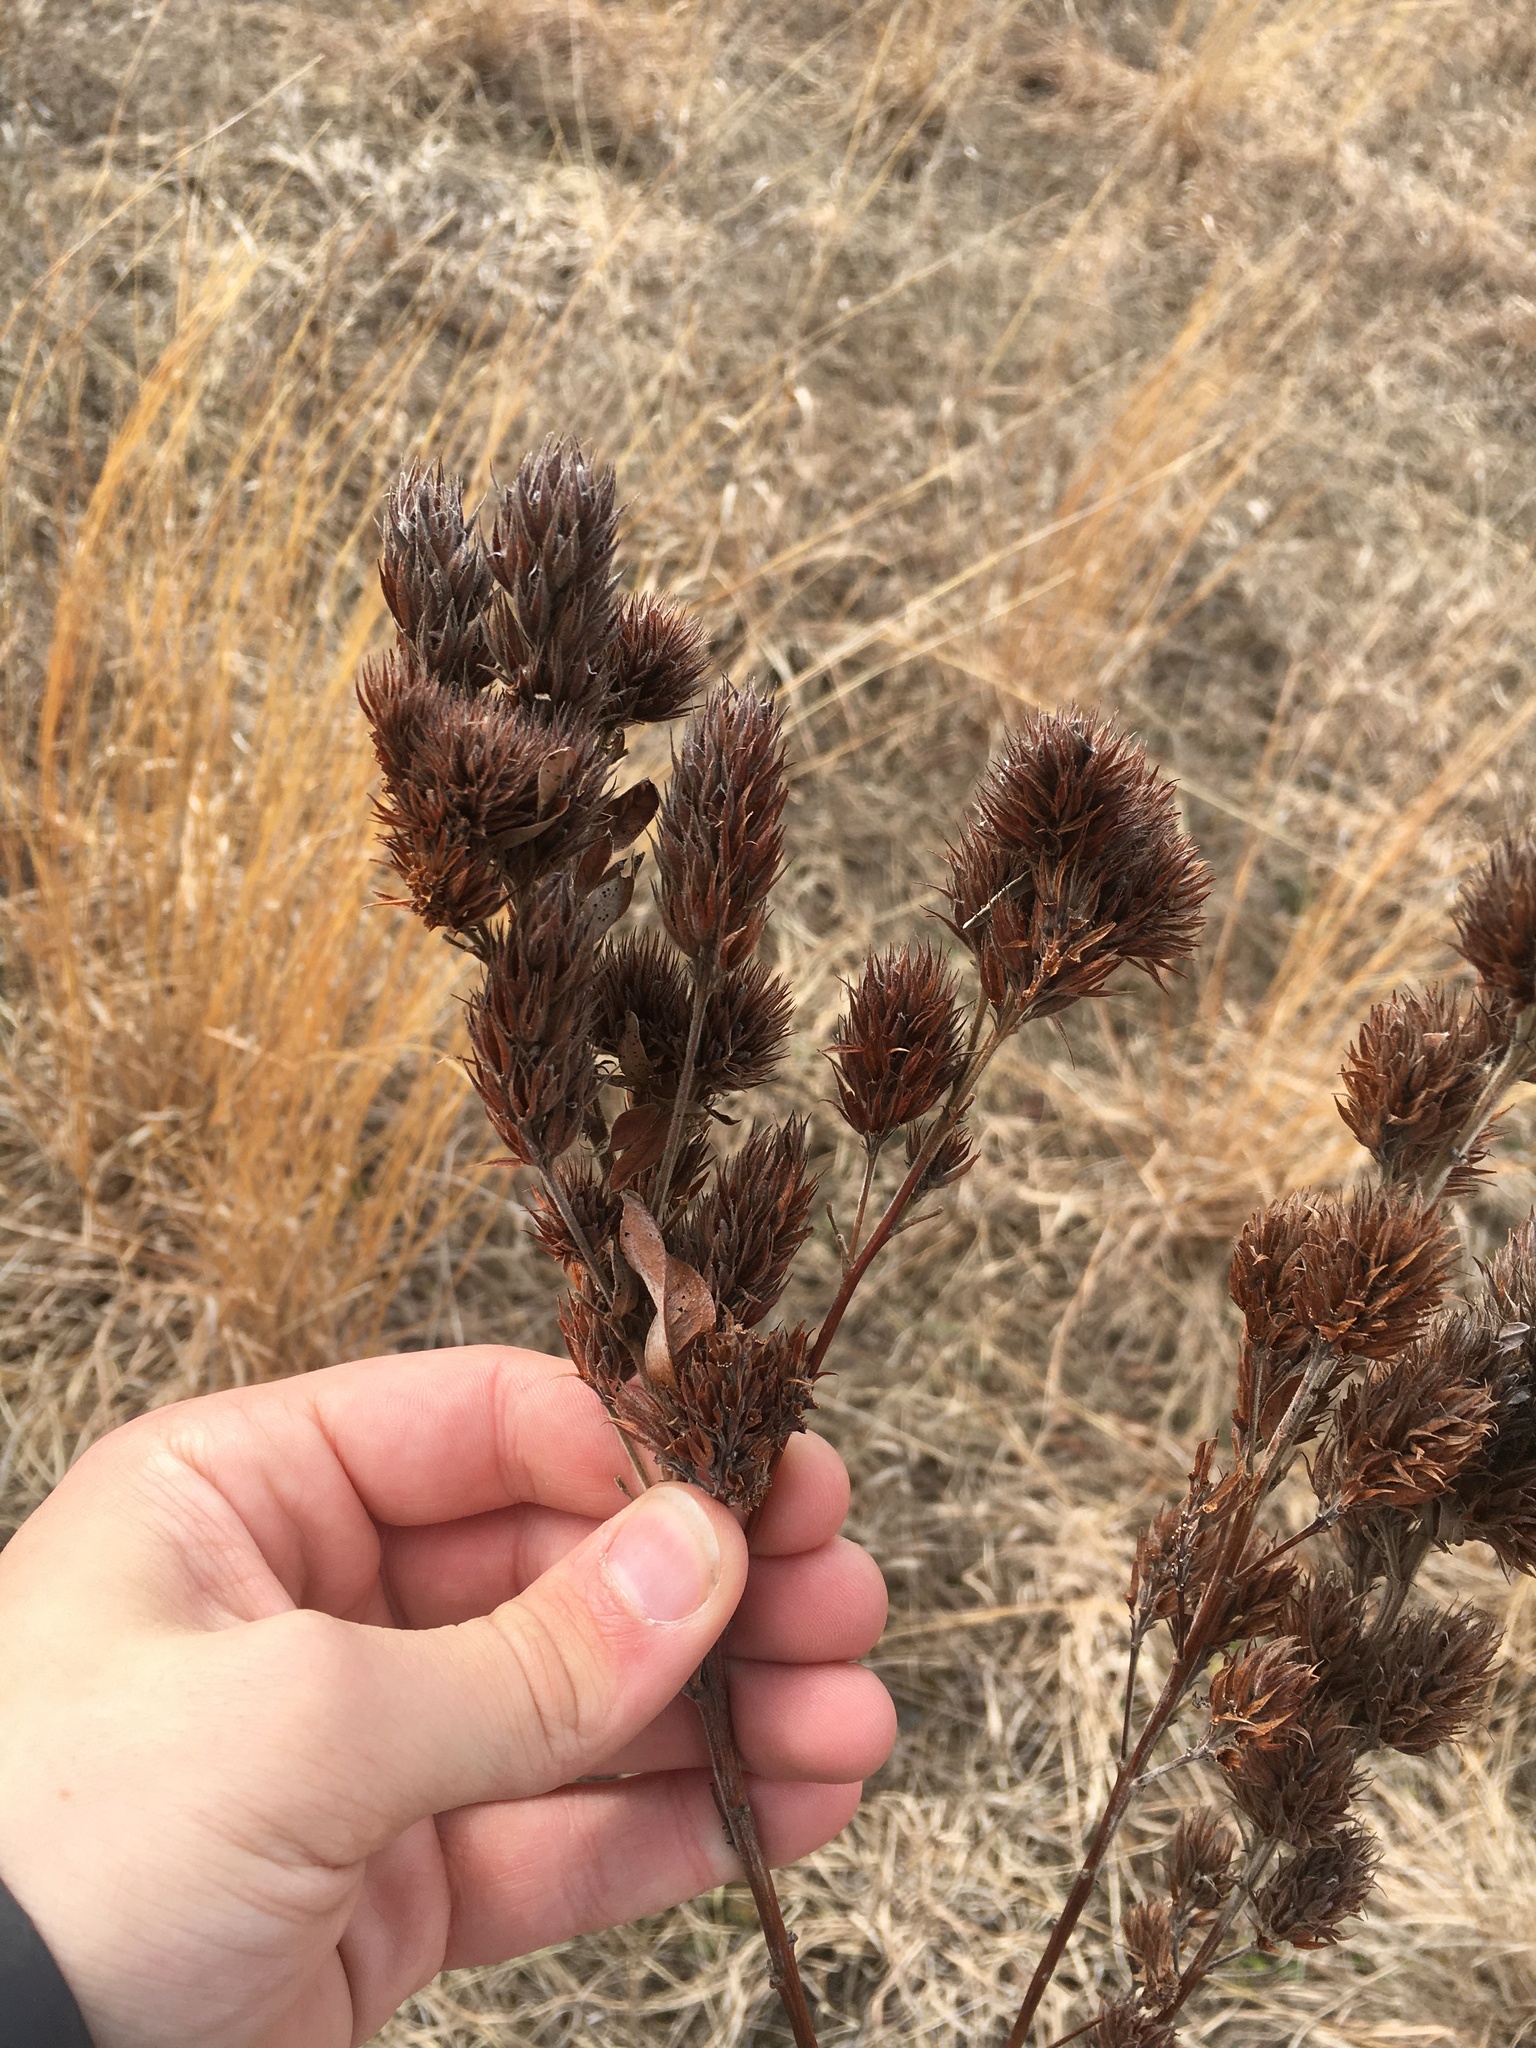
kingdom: Plantae
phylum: Tracheophyta
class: Magnoliopsida
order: Fabales
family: Fabaceae
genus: Lespedeza
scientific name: Lespedeza capitata
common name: Dusty clover
